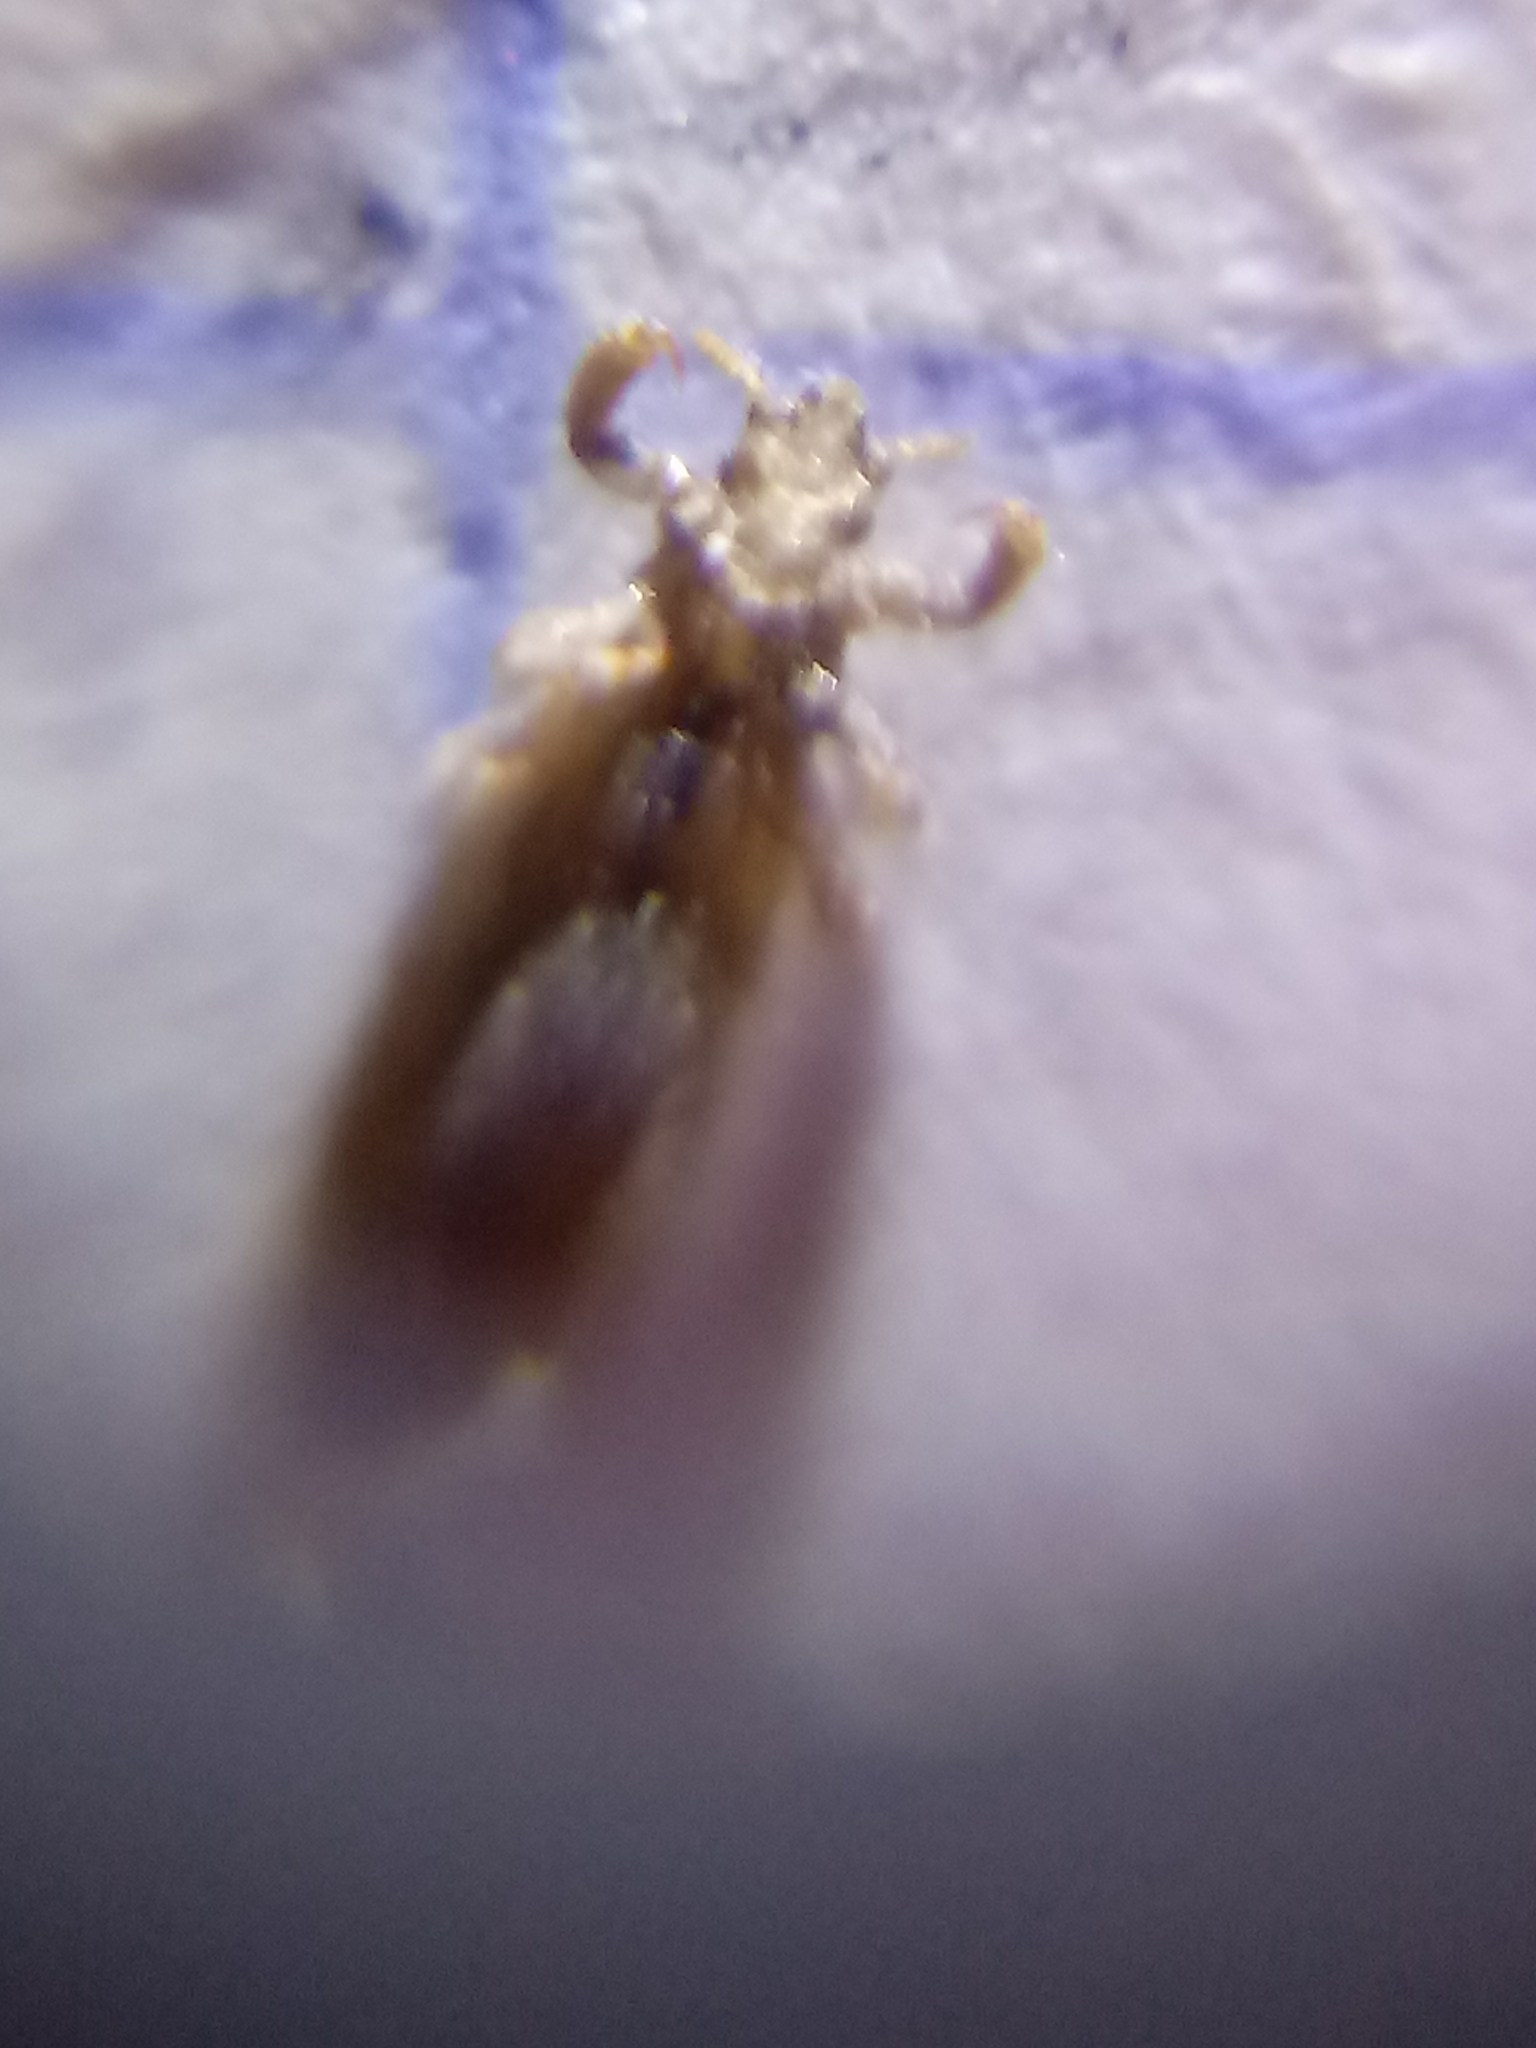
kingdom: Animalia
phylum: Arthropoda
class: Insecta
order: Psocodea
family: Pediculidae
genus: Pediculus
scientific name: Pediculus humanus
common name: Body louse
